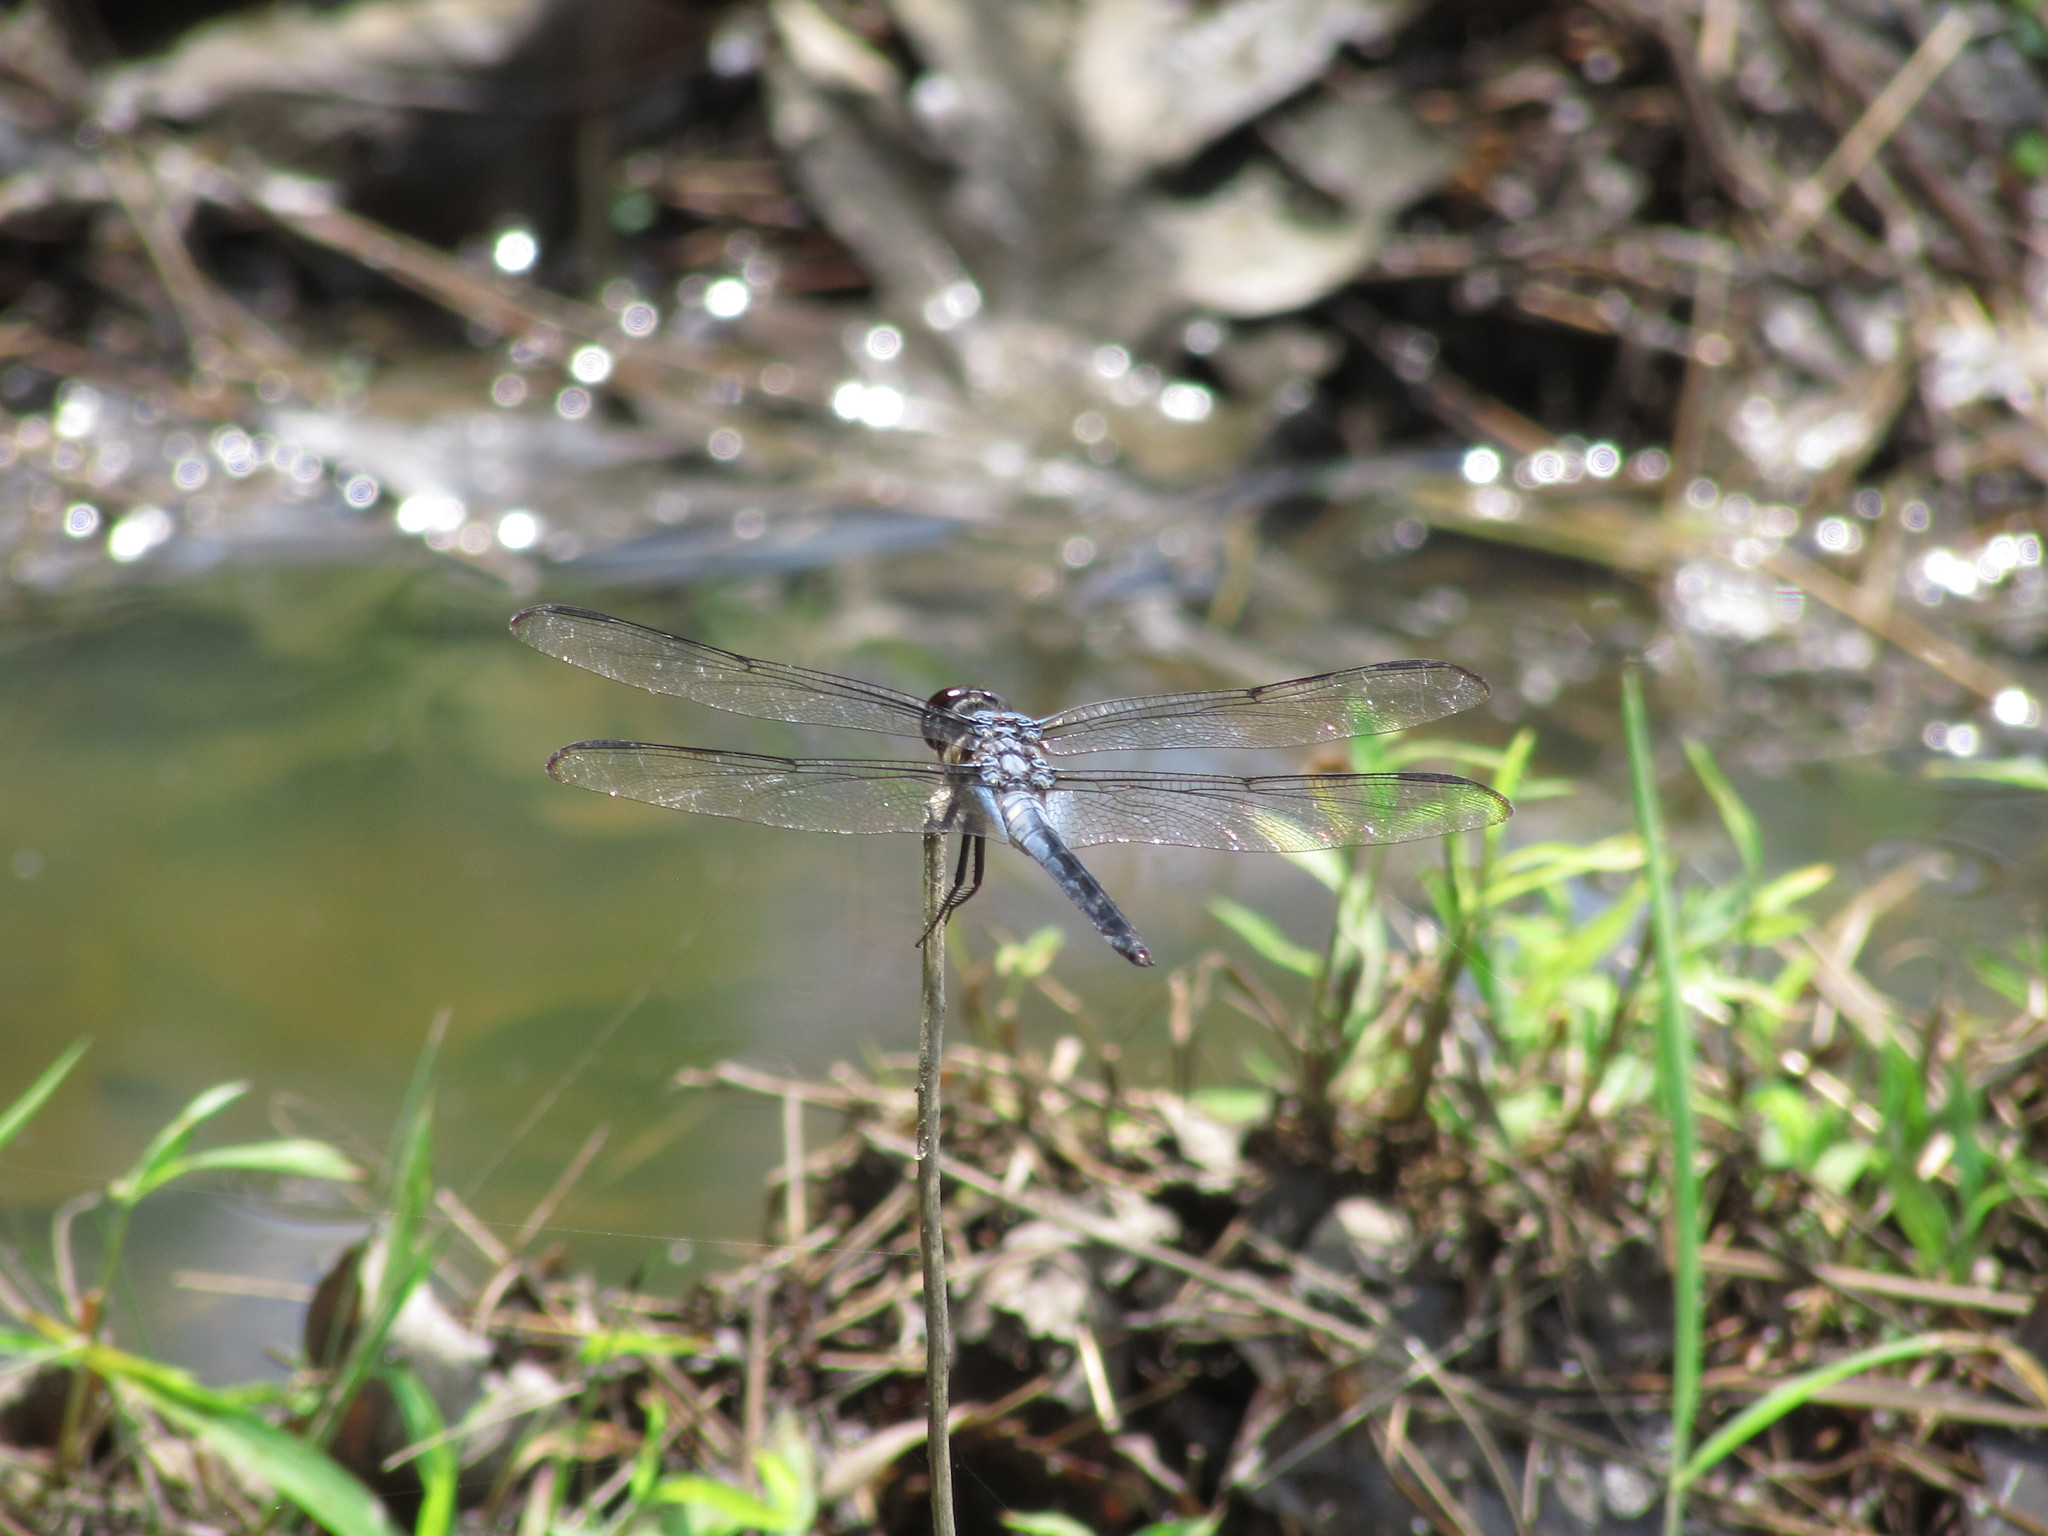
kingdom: Animalia
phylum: Arthropoda
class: Insecta
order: Odonata
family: Libellulidae
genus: Libellula
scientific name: Libellula axilena
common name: Bar-winged skimmer
